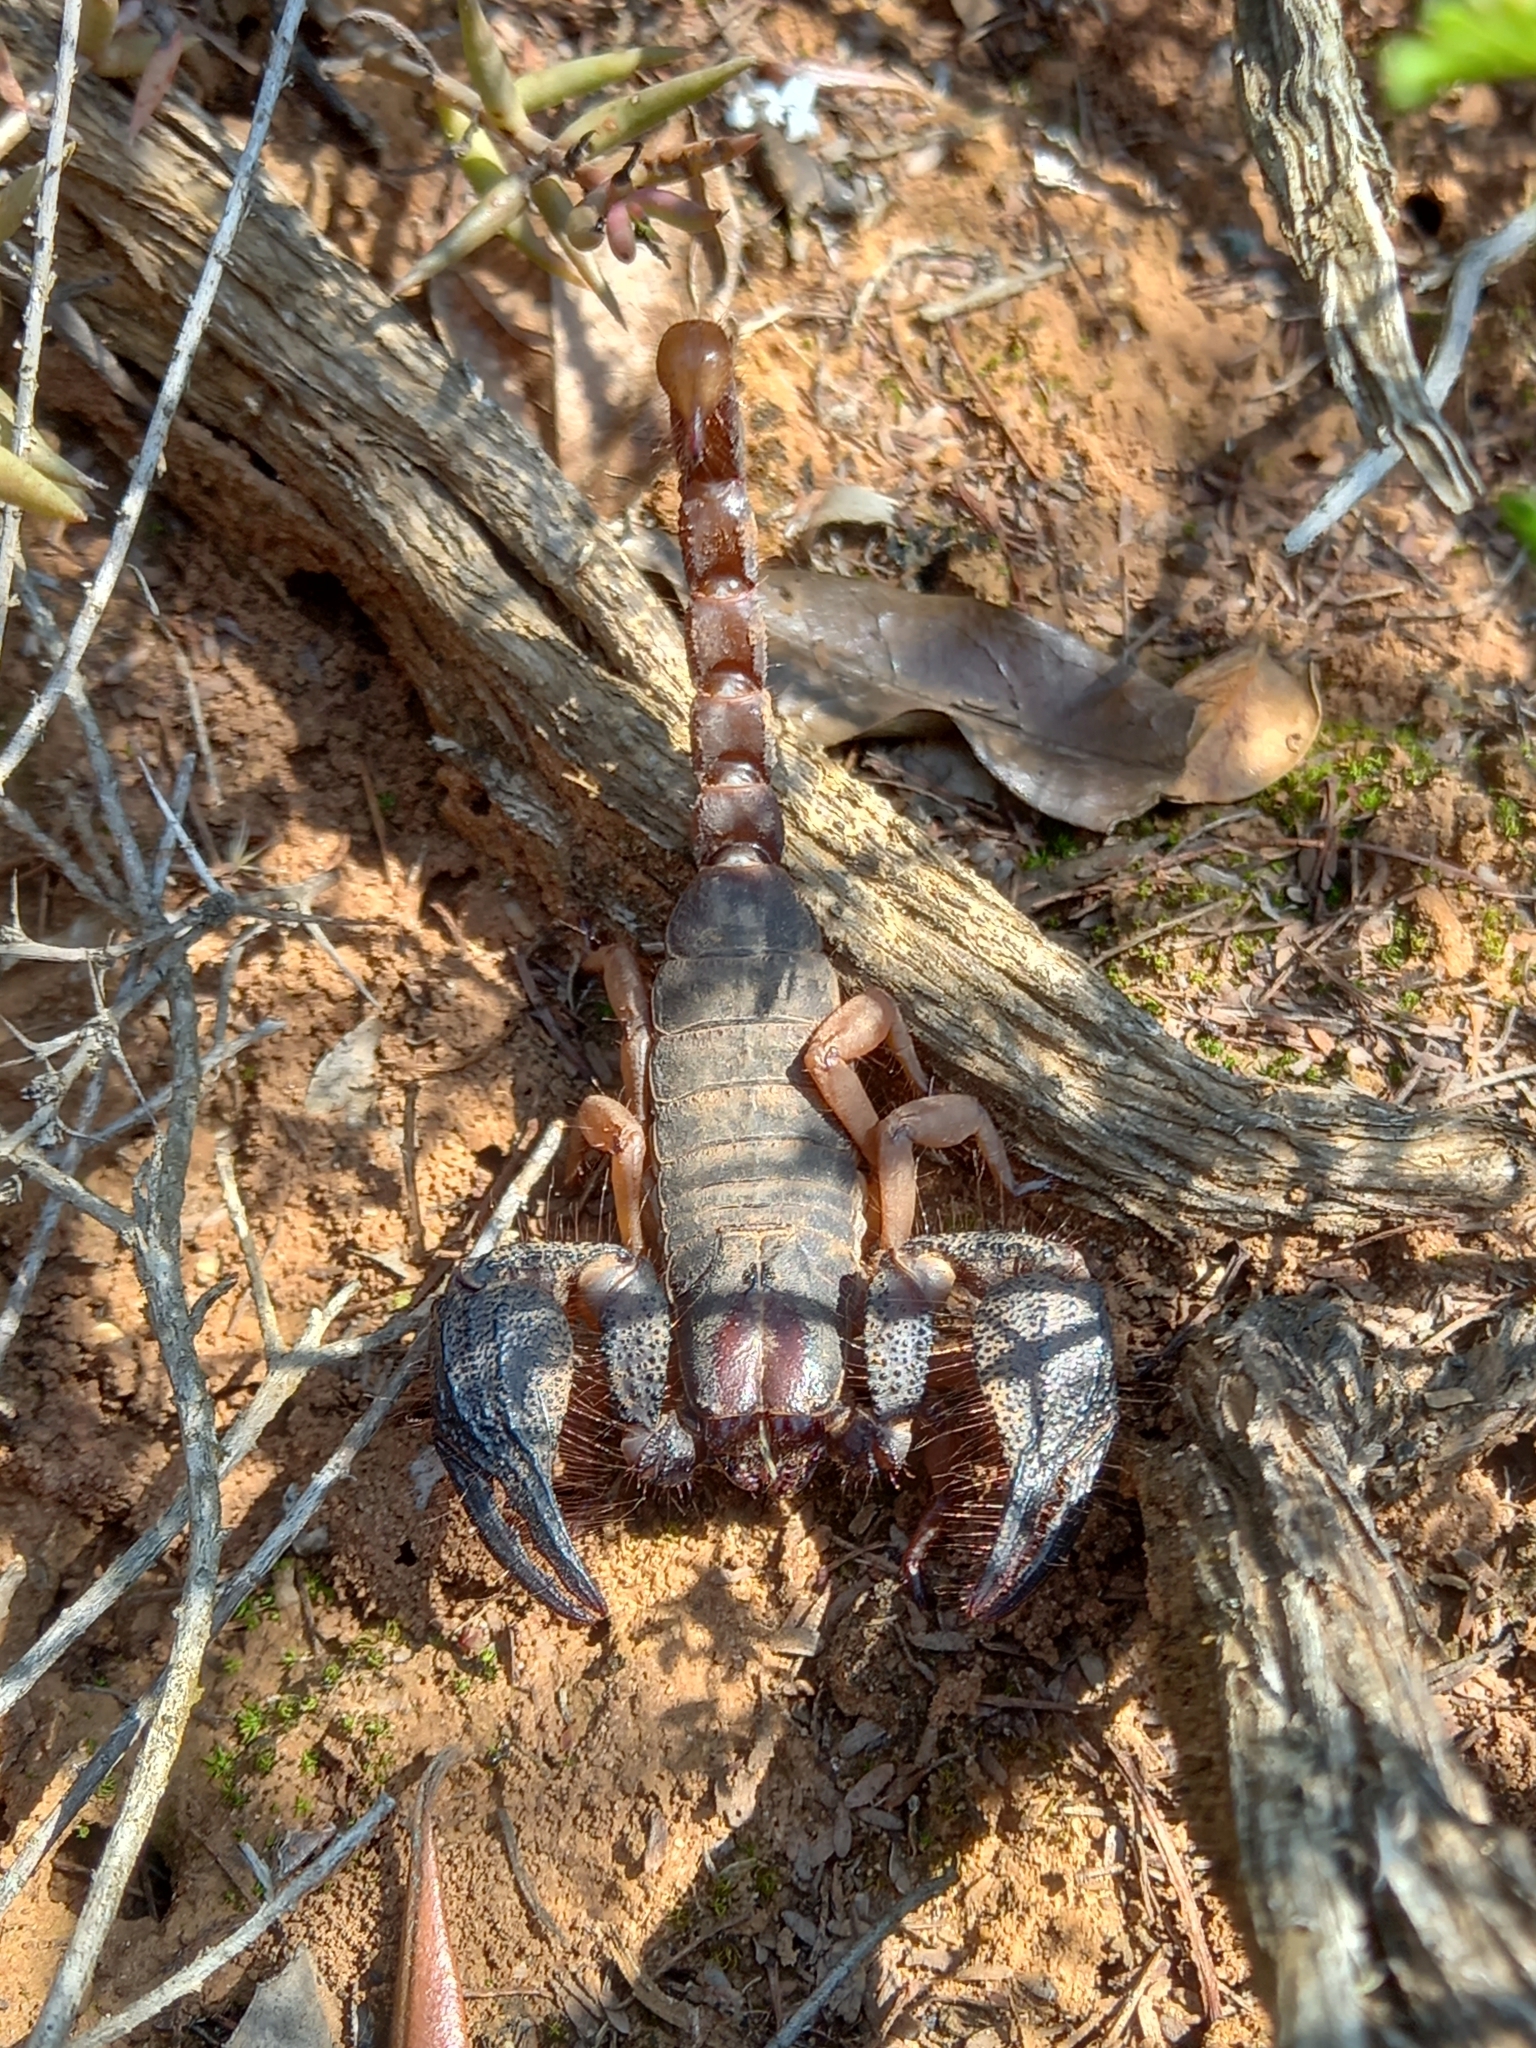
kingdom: Animalia
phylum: Arthropoda
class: Arachnida
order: Scorpiones
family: Scorpionidae
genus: Opistophthalmus
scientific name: Opistophthalmus latimanus
